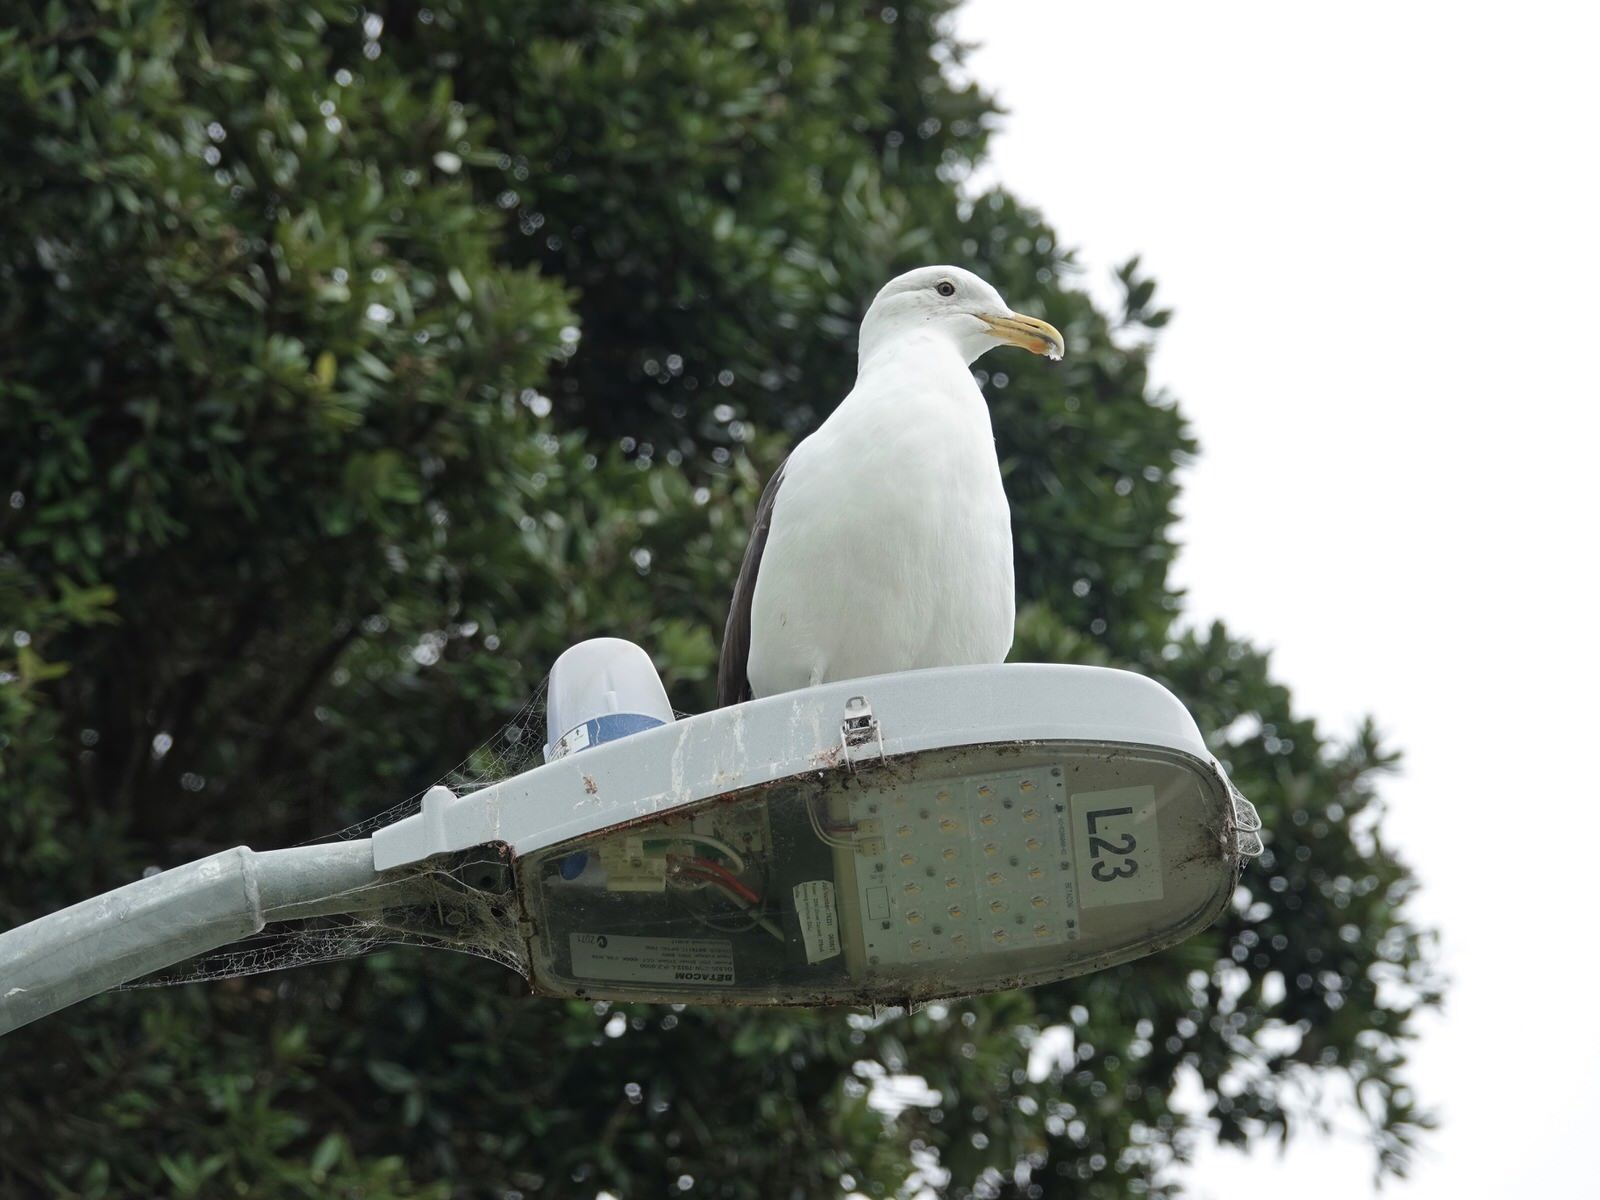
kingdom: Animalia
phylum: Chordata
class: Aves
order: Charadriiformes
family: Laridae
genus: Larus
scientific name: Larus dominicanus
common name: Kelp gull
